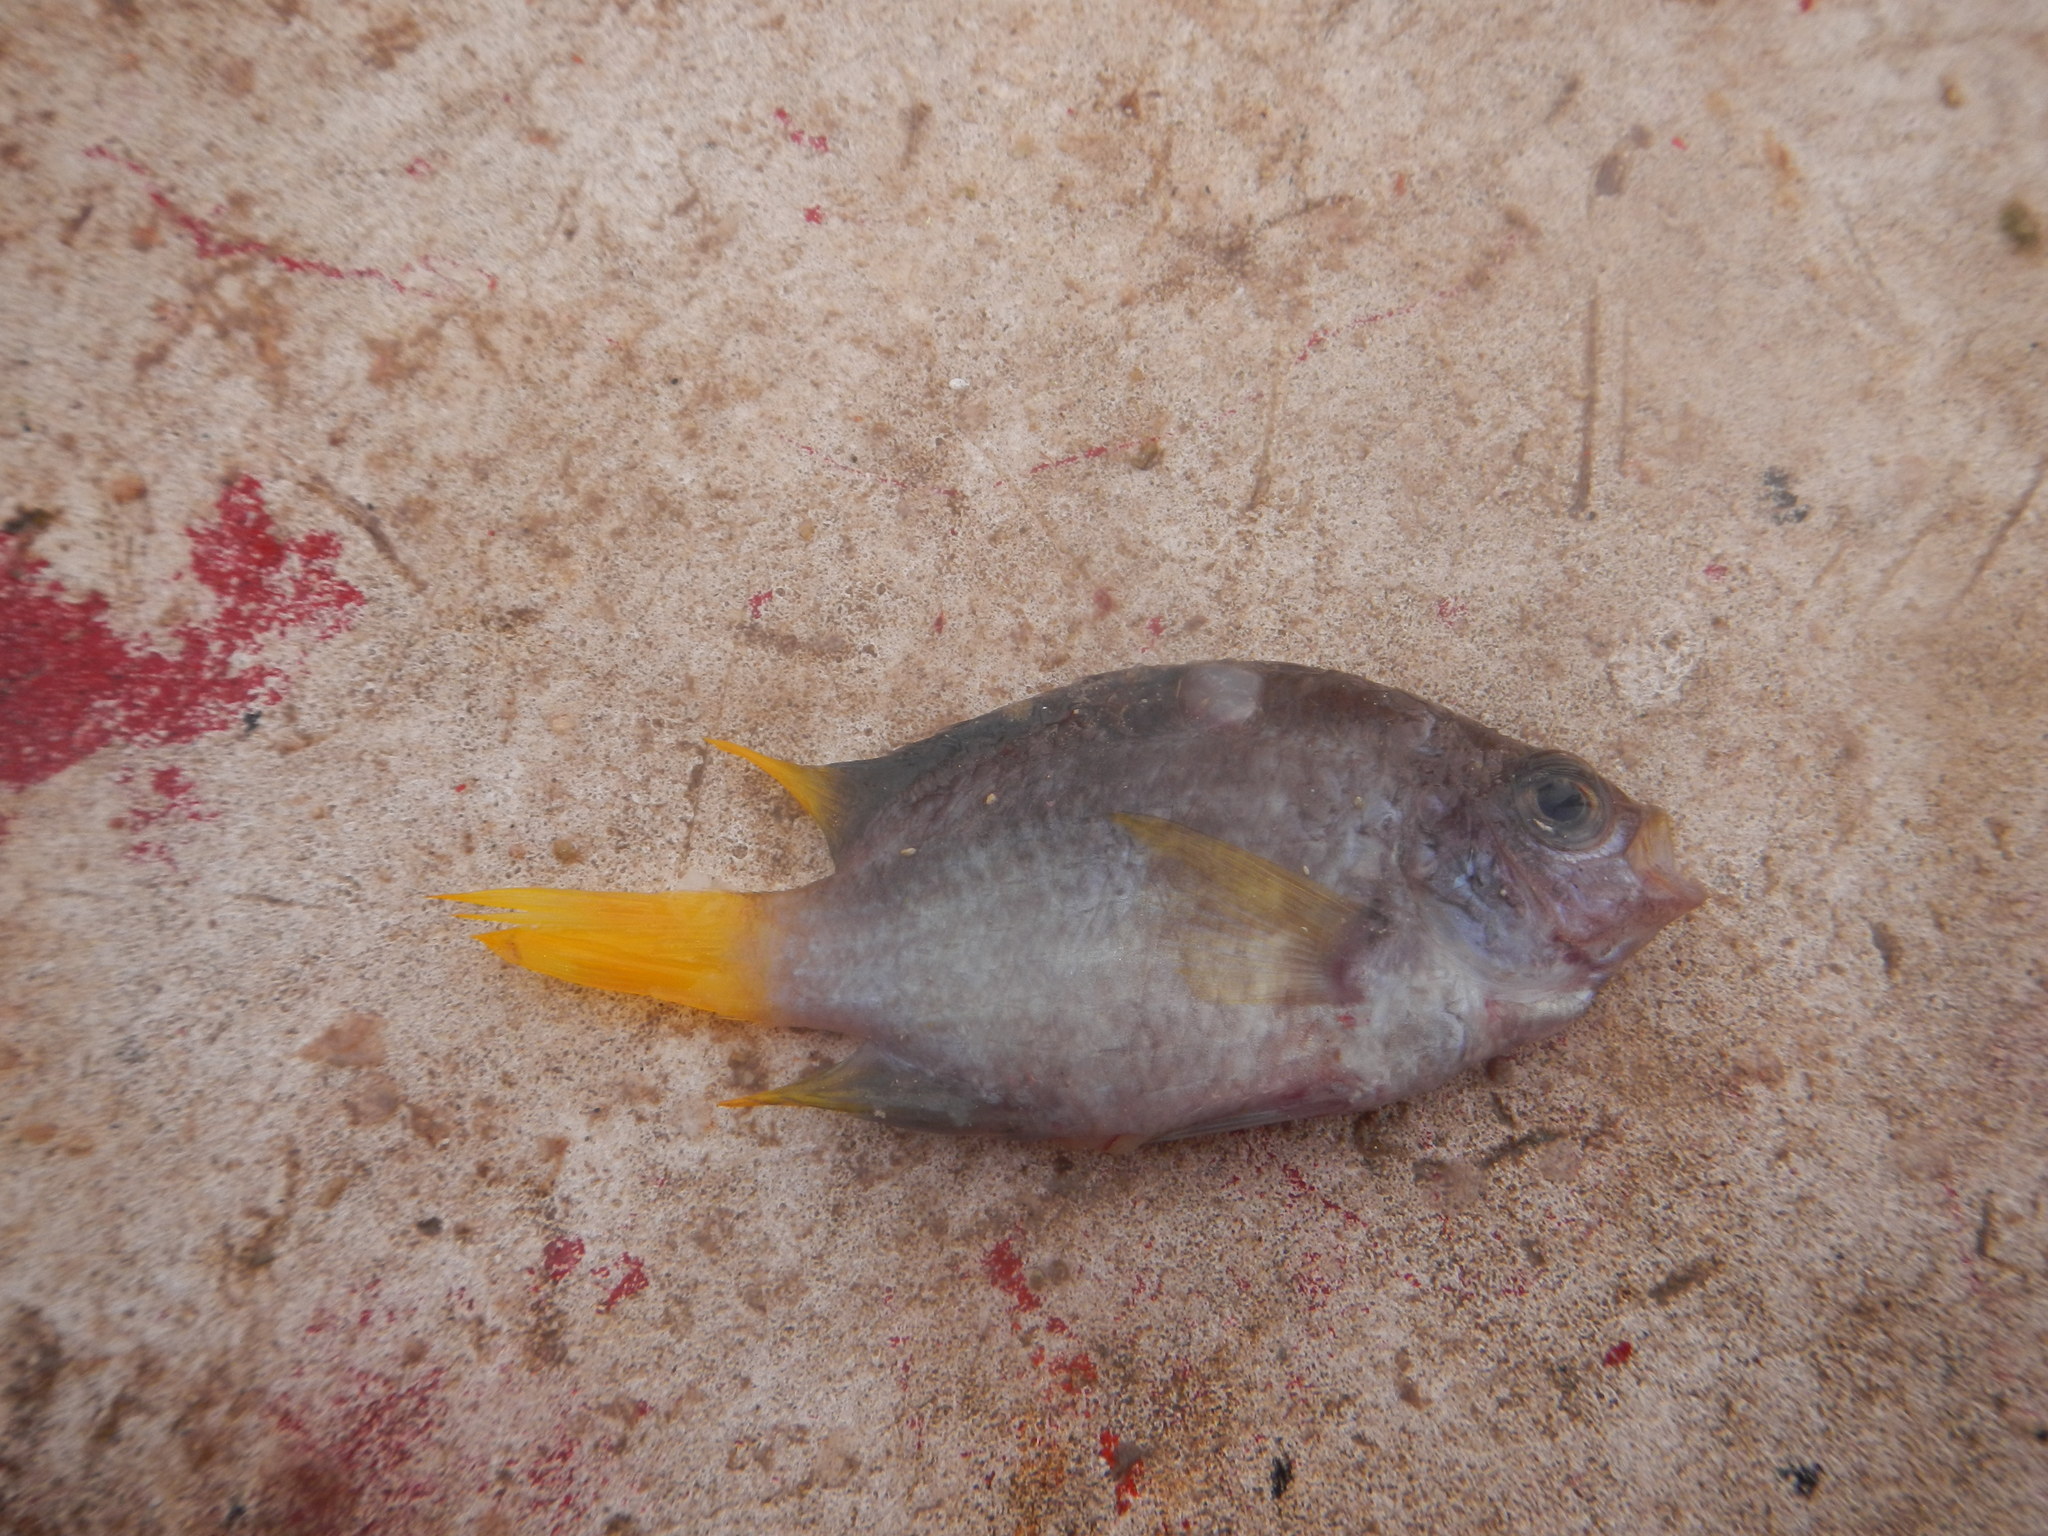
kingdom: Animalia
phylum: Chordata
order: Perciformes
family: Pomacentridae
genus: Chromis
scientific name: Chromis enchrysura
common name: Caribbean chromis
